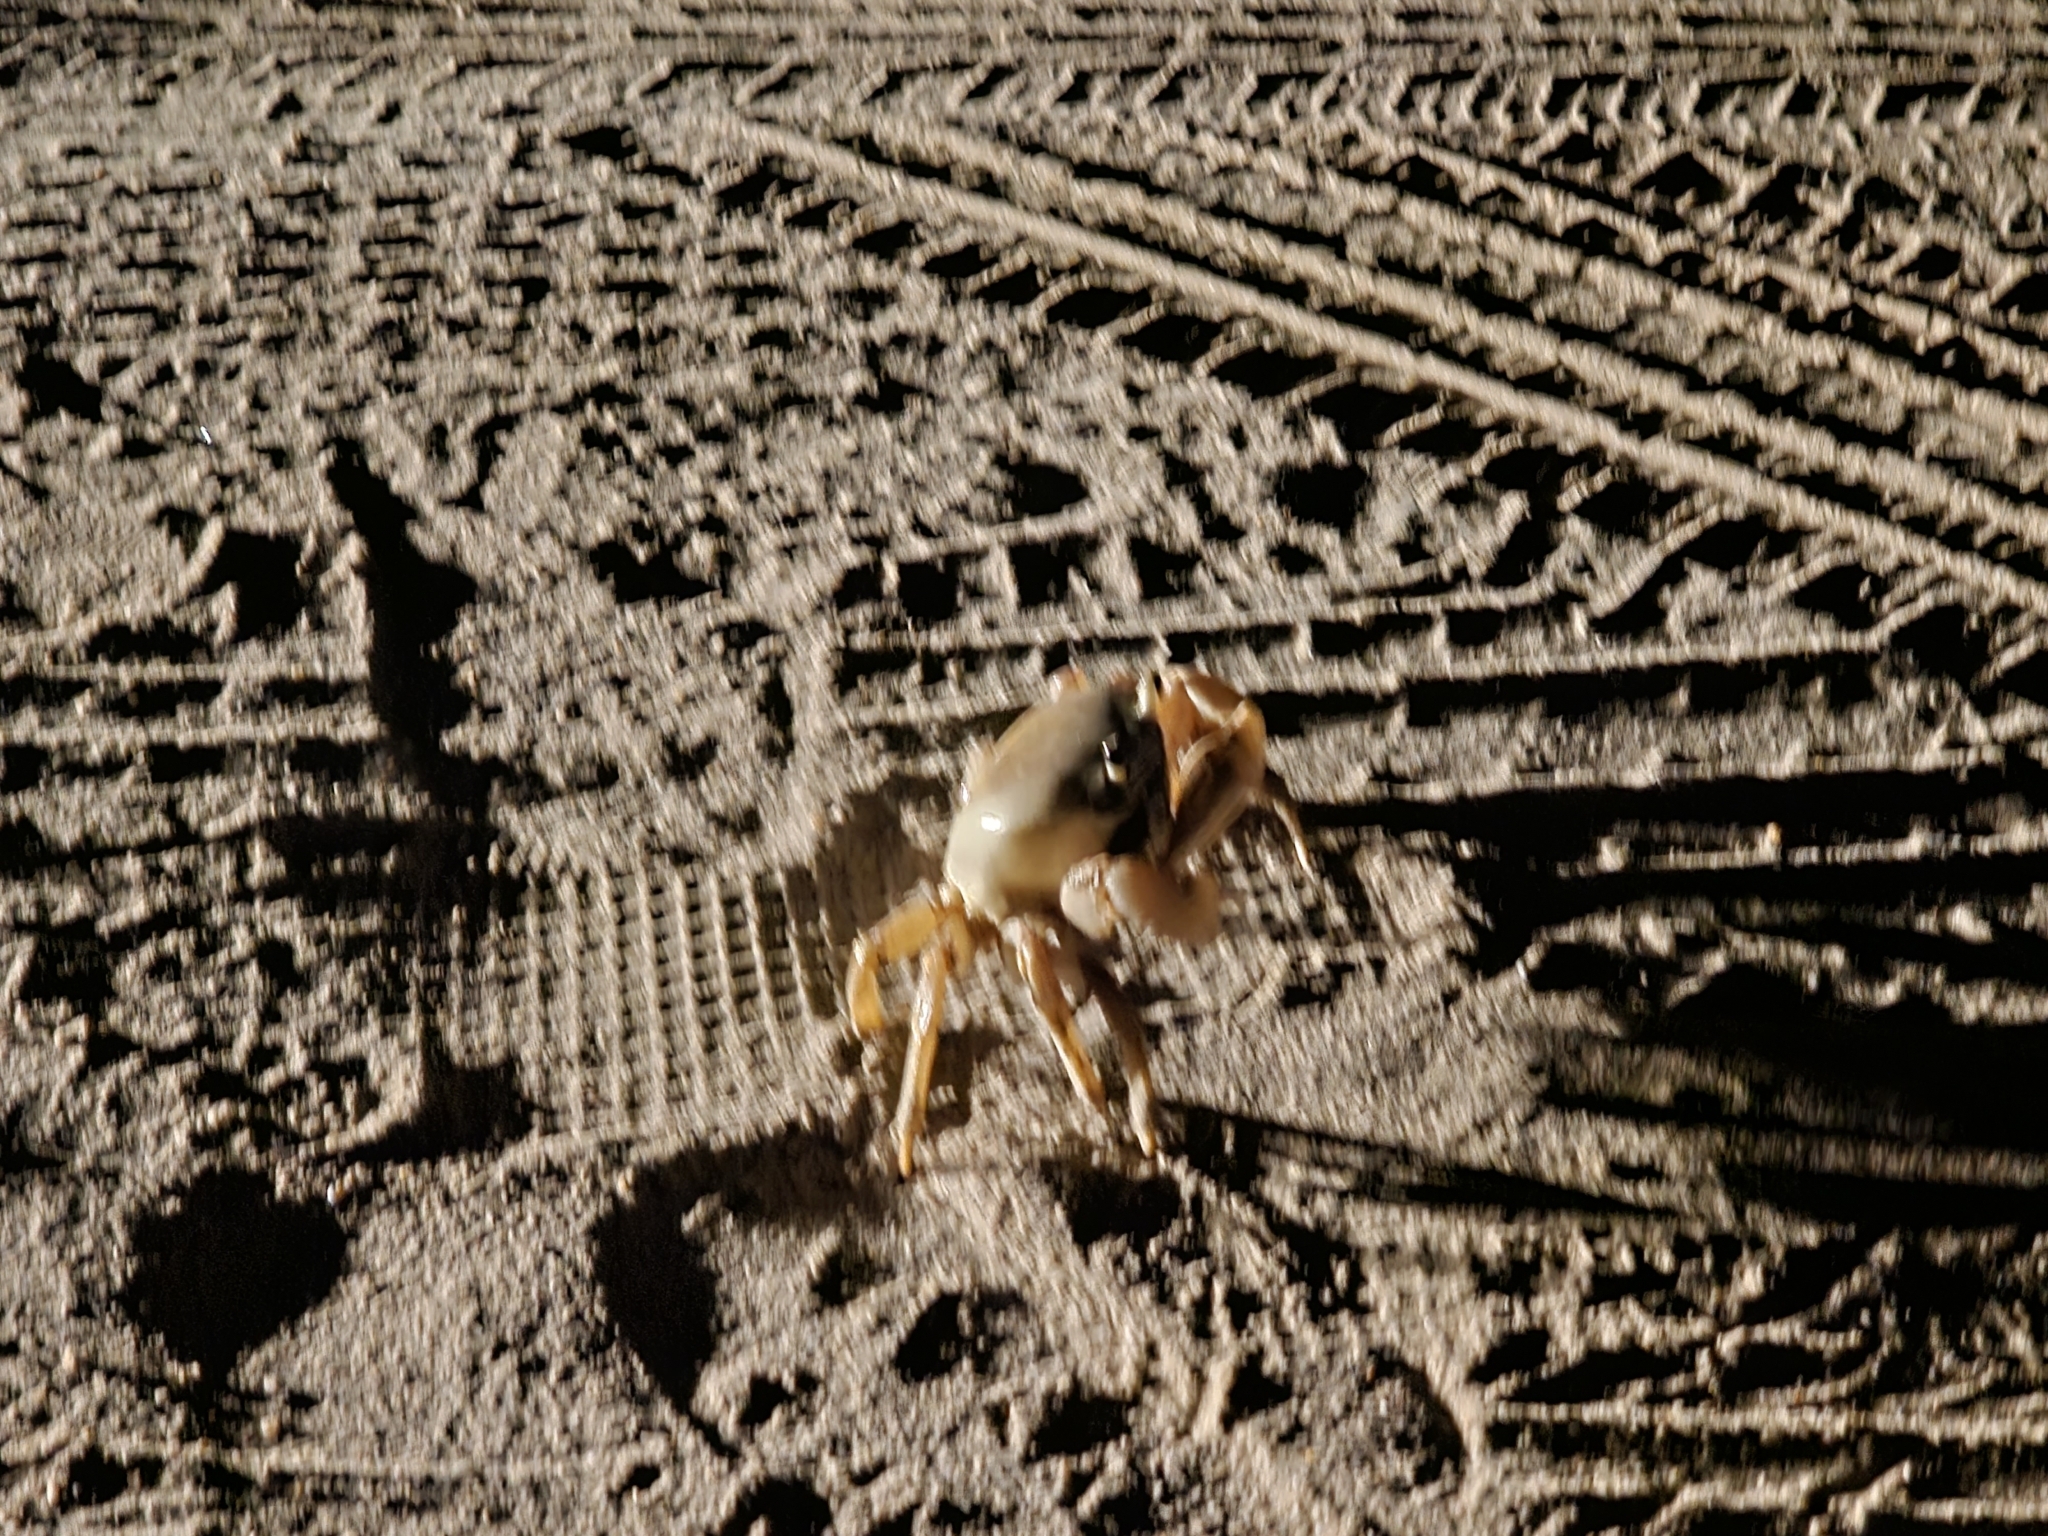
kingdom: Animalia
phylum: Arthropoda
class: Malacostraca
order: Decapoda
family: Gecarcinidae
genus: Cardisoma
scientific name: Cardisoma guanhumi
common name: Great land crab
